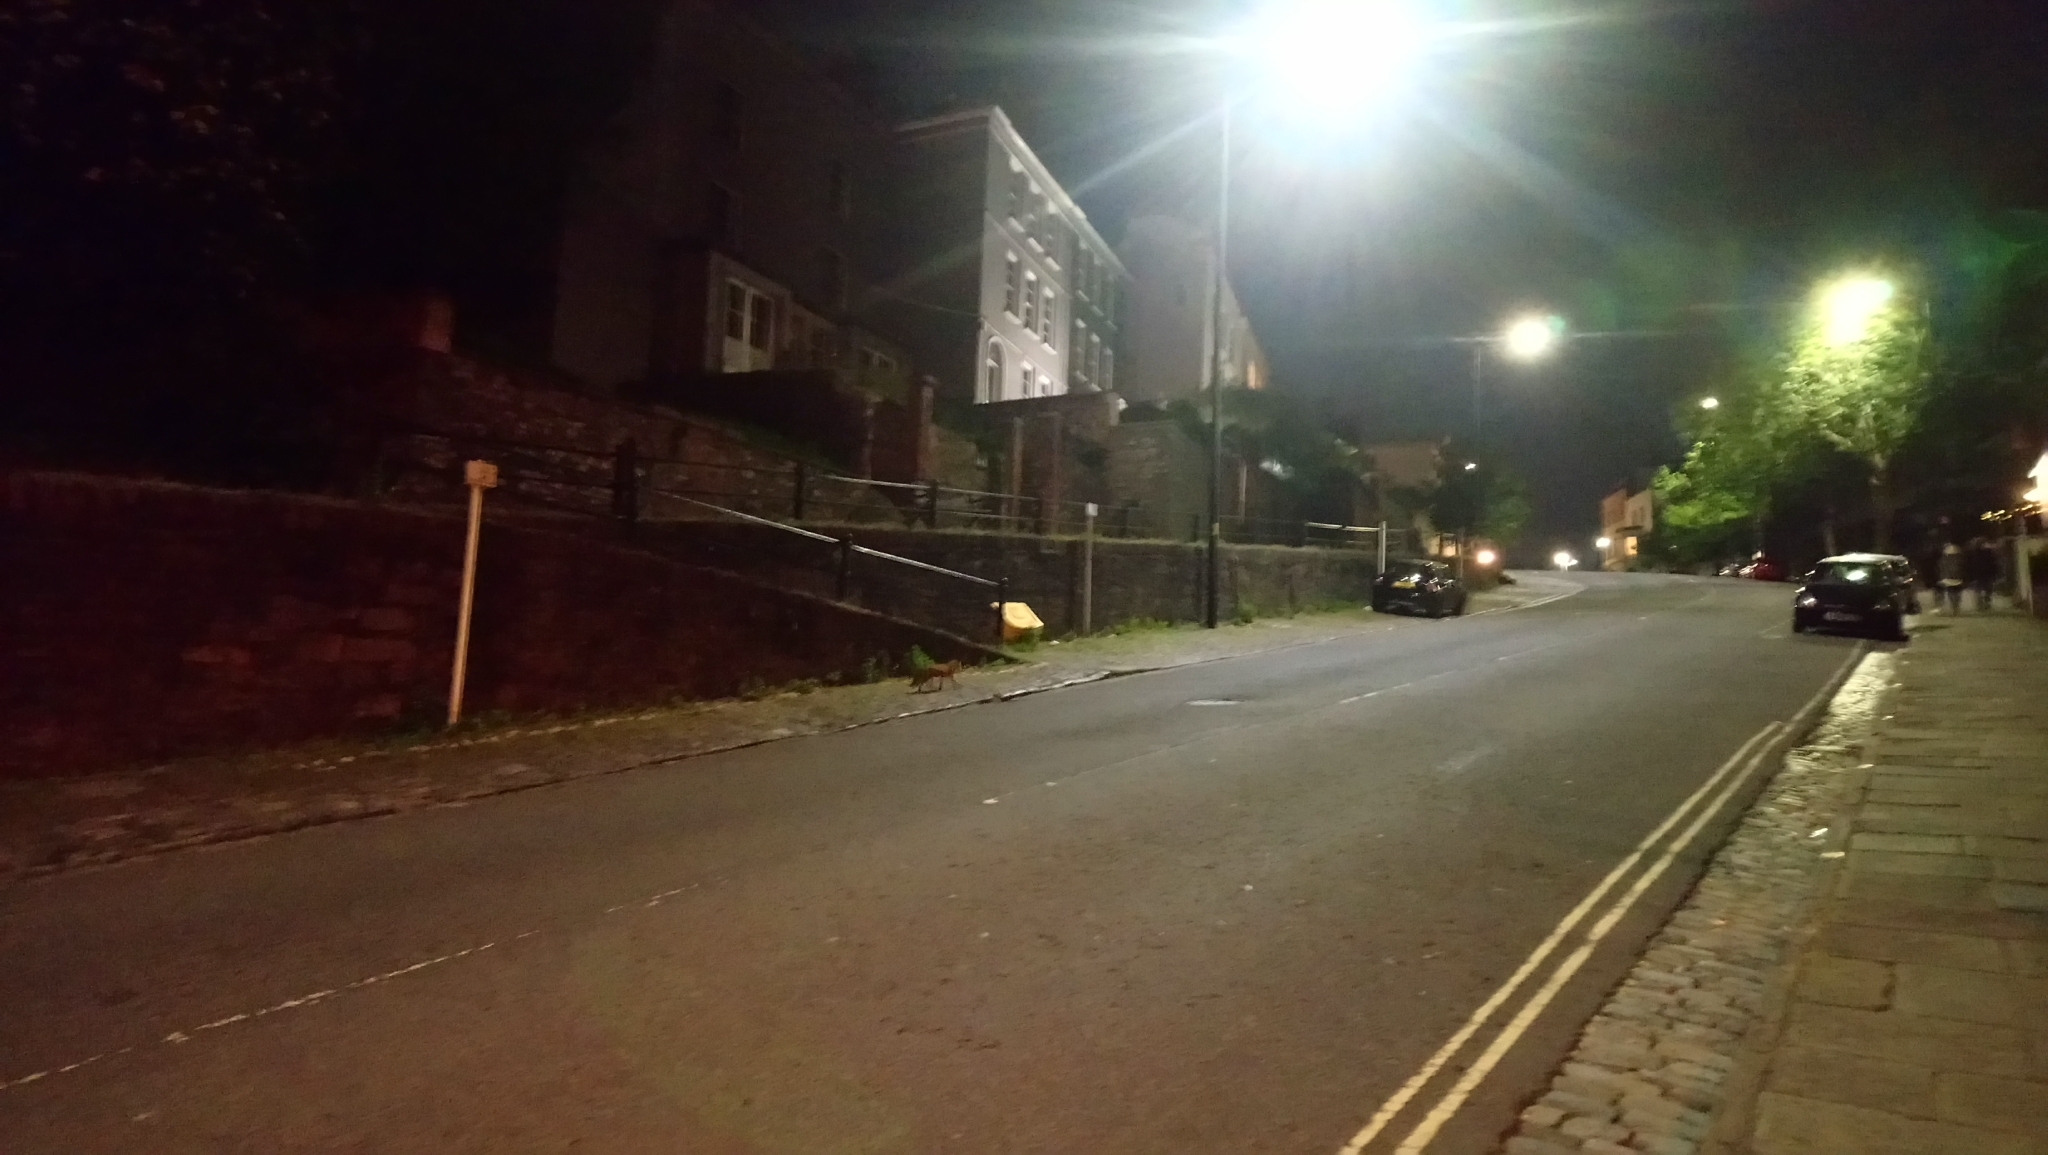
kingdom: Animalia
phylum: Chordata
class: Mammalia
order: Carnivora
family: Canidae
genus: Vulpes
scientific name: Vulpes vulpes
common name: Red fox
